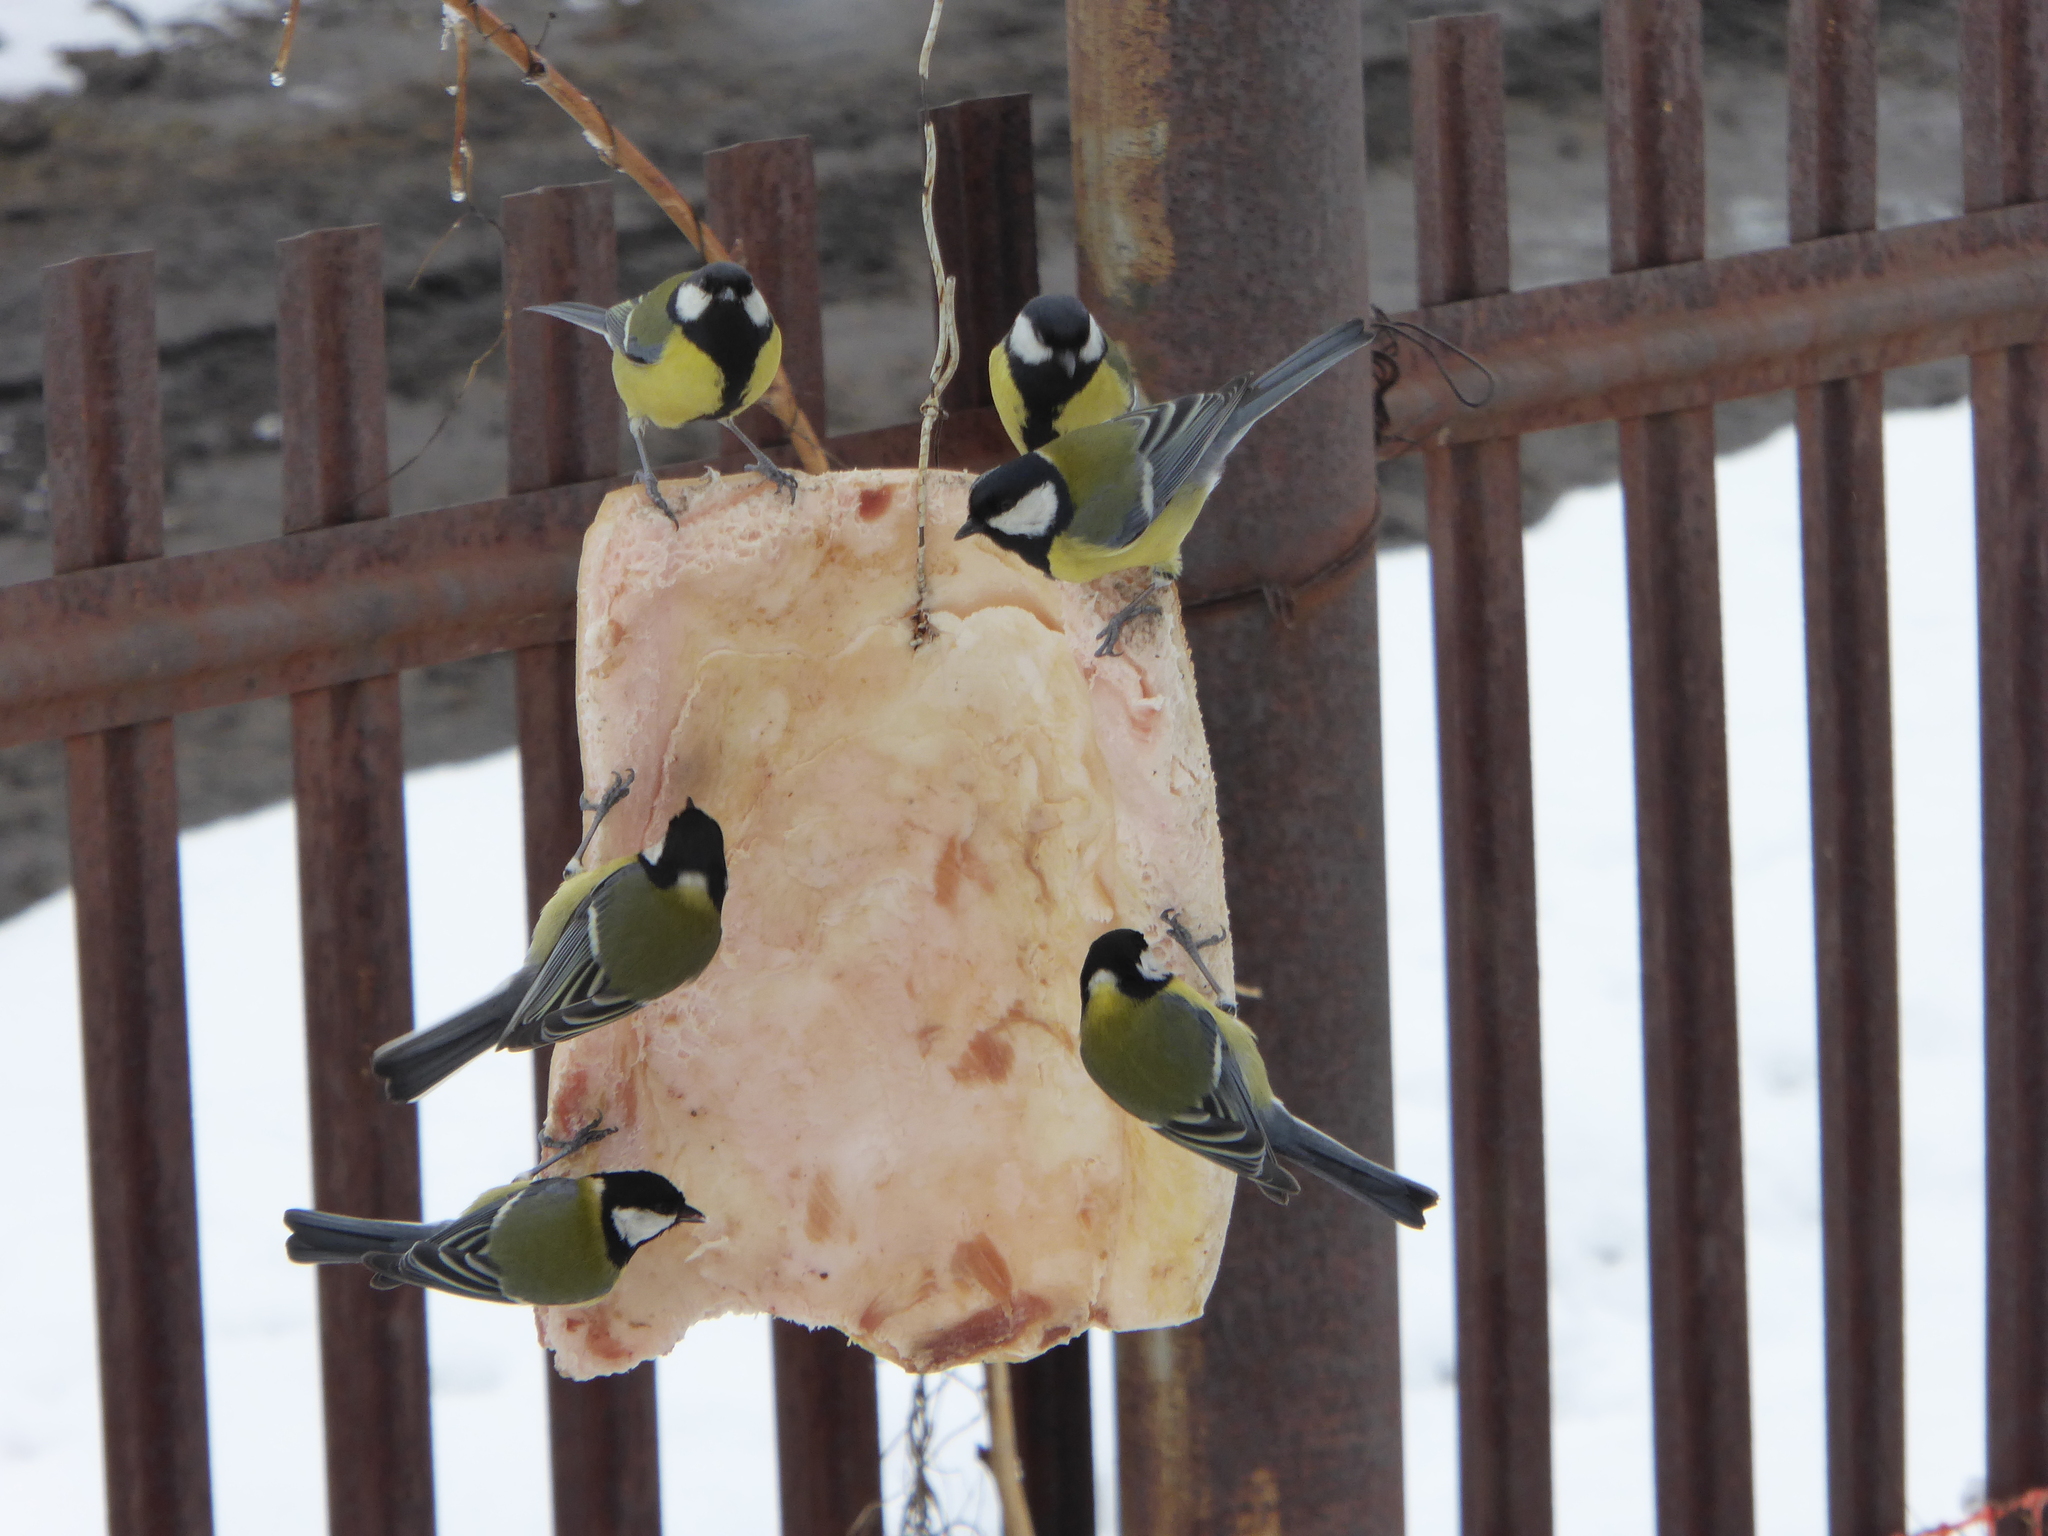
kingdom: Animalia
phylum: Chordata
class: Aves
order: Passeriformes
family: Paridae
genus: Parus
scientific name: Parus major
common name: Great tit
